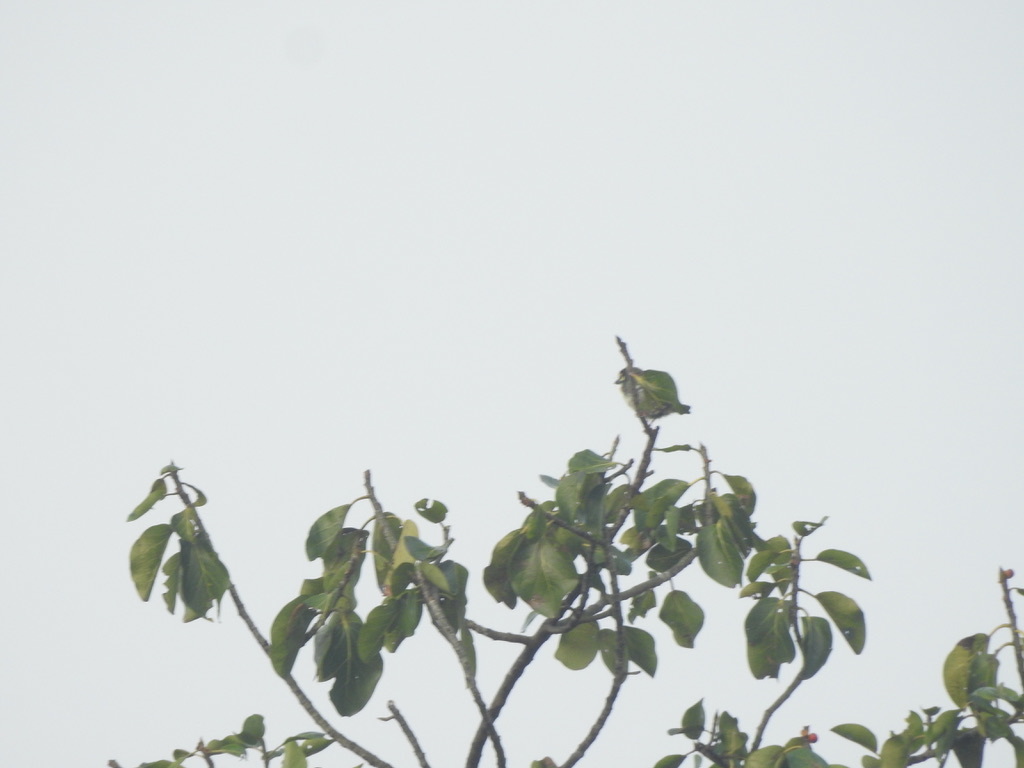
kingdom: Animalia
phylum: Chordata
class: Aves
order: Piciformes
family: Megalaimidae
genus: Psilopogon
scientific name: Psilopogon haemacephalus
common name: Coppersmith barbet
